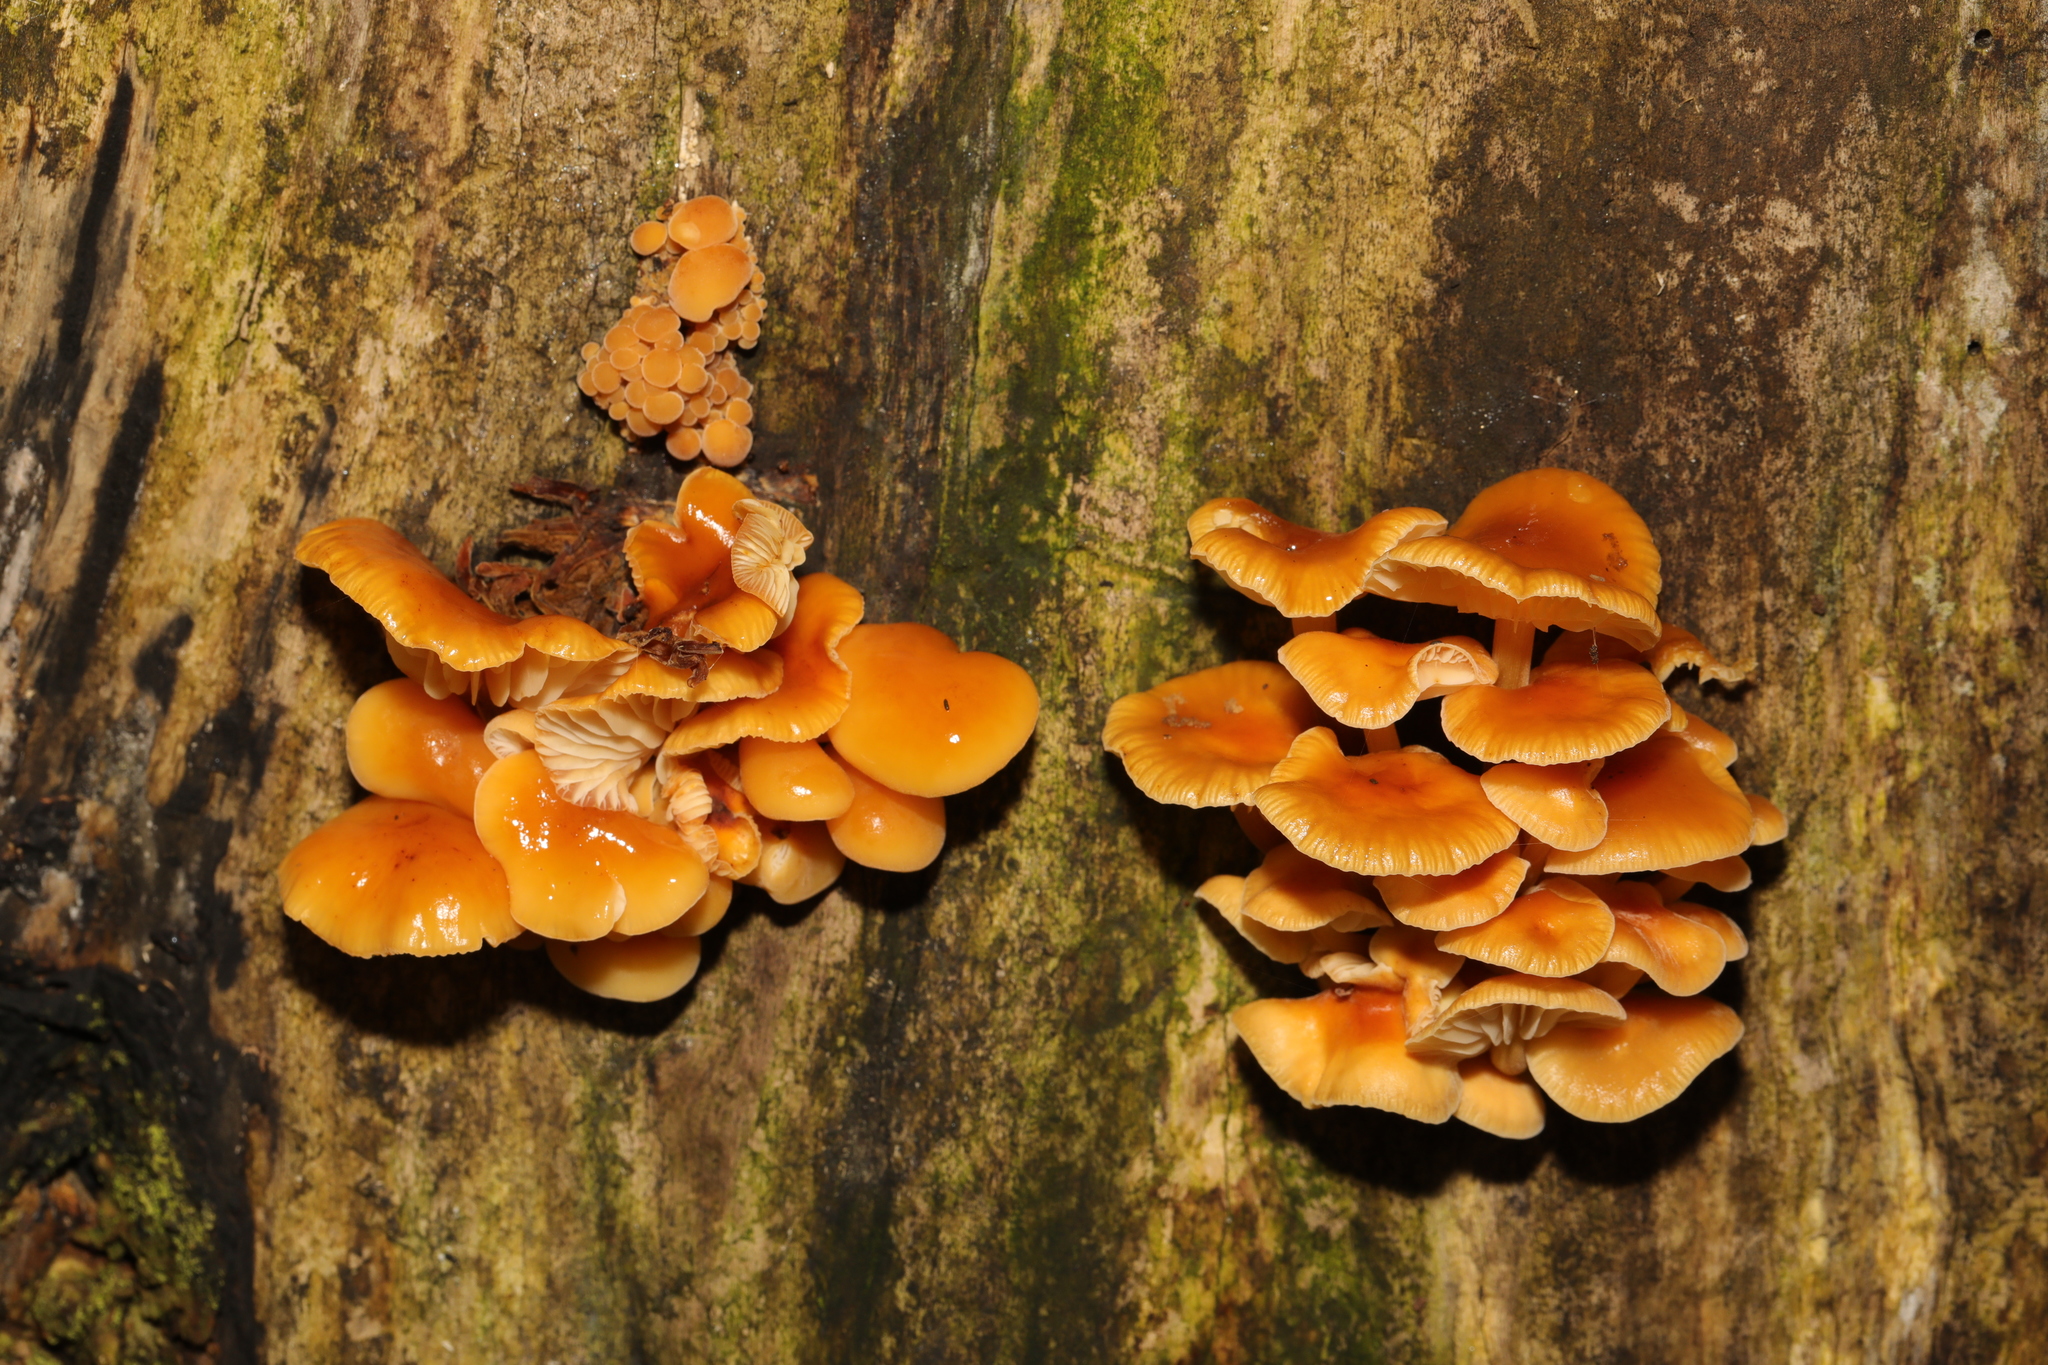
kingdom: Fungi
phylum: Basidiomycota
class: Agaricomycetes
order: Agaricales
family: Physalacriaceae
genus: Flammulina
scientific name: Flammulina
